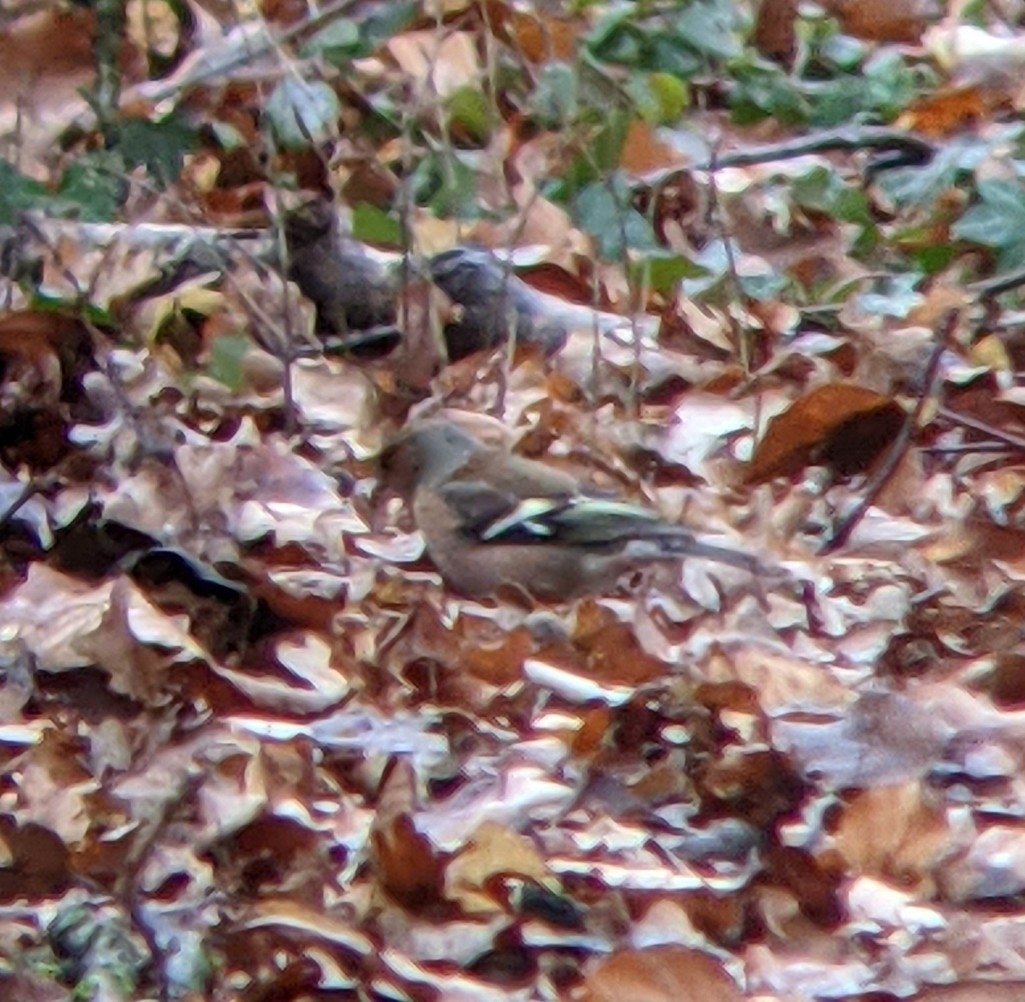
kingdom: Animalia
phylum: Chordata
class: Aves
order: Passeriformes
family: Fringillidae
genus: Fringilla
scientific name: Fringilla coelebs
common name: Common chaffinch
